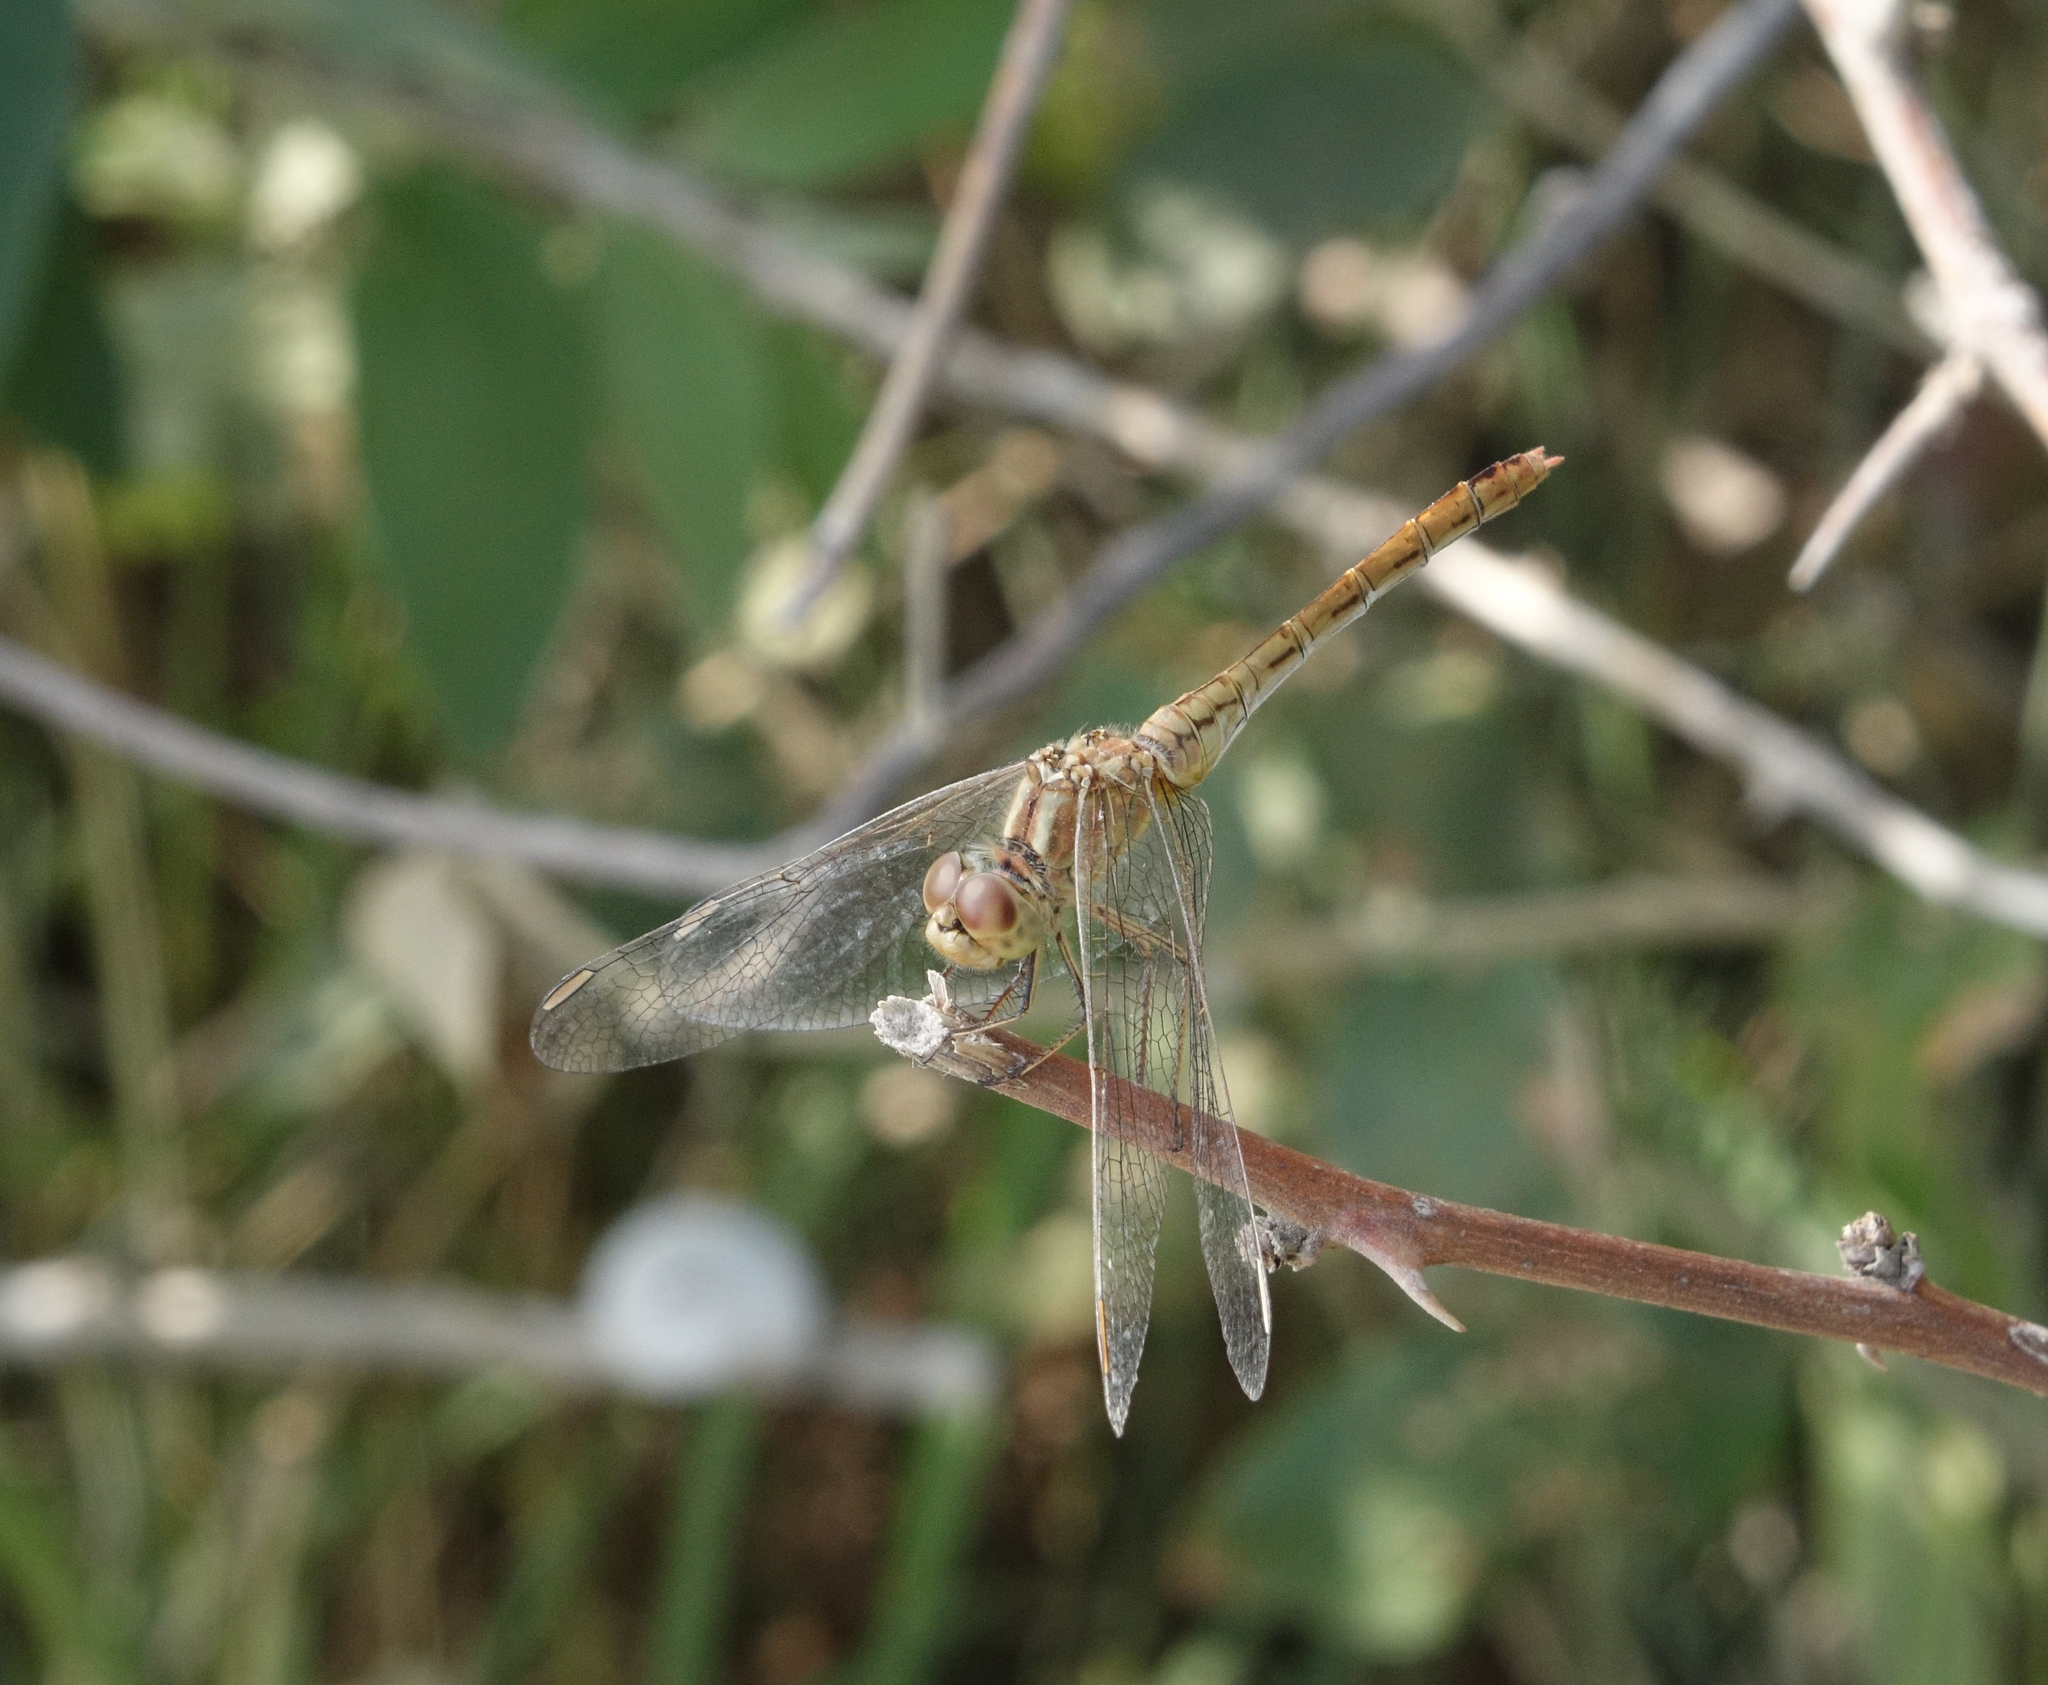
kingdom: Animalia
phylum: Arthropoda
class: Insecta
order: Odonata
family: Libellulidae
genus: Sympetrum
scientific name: Sympetrum meridionale
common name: Southern darter
